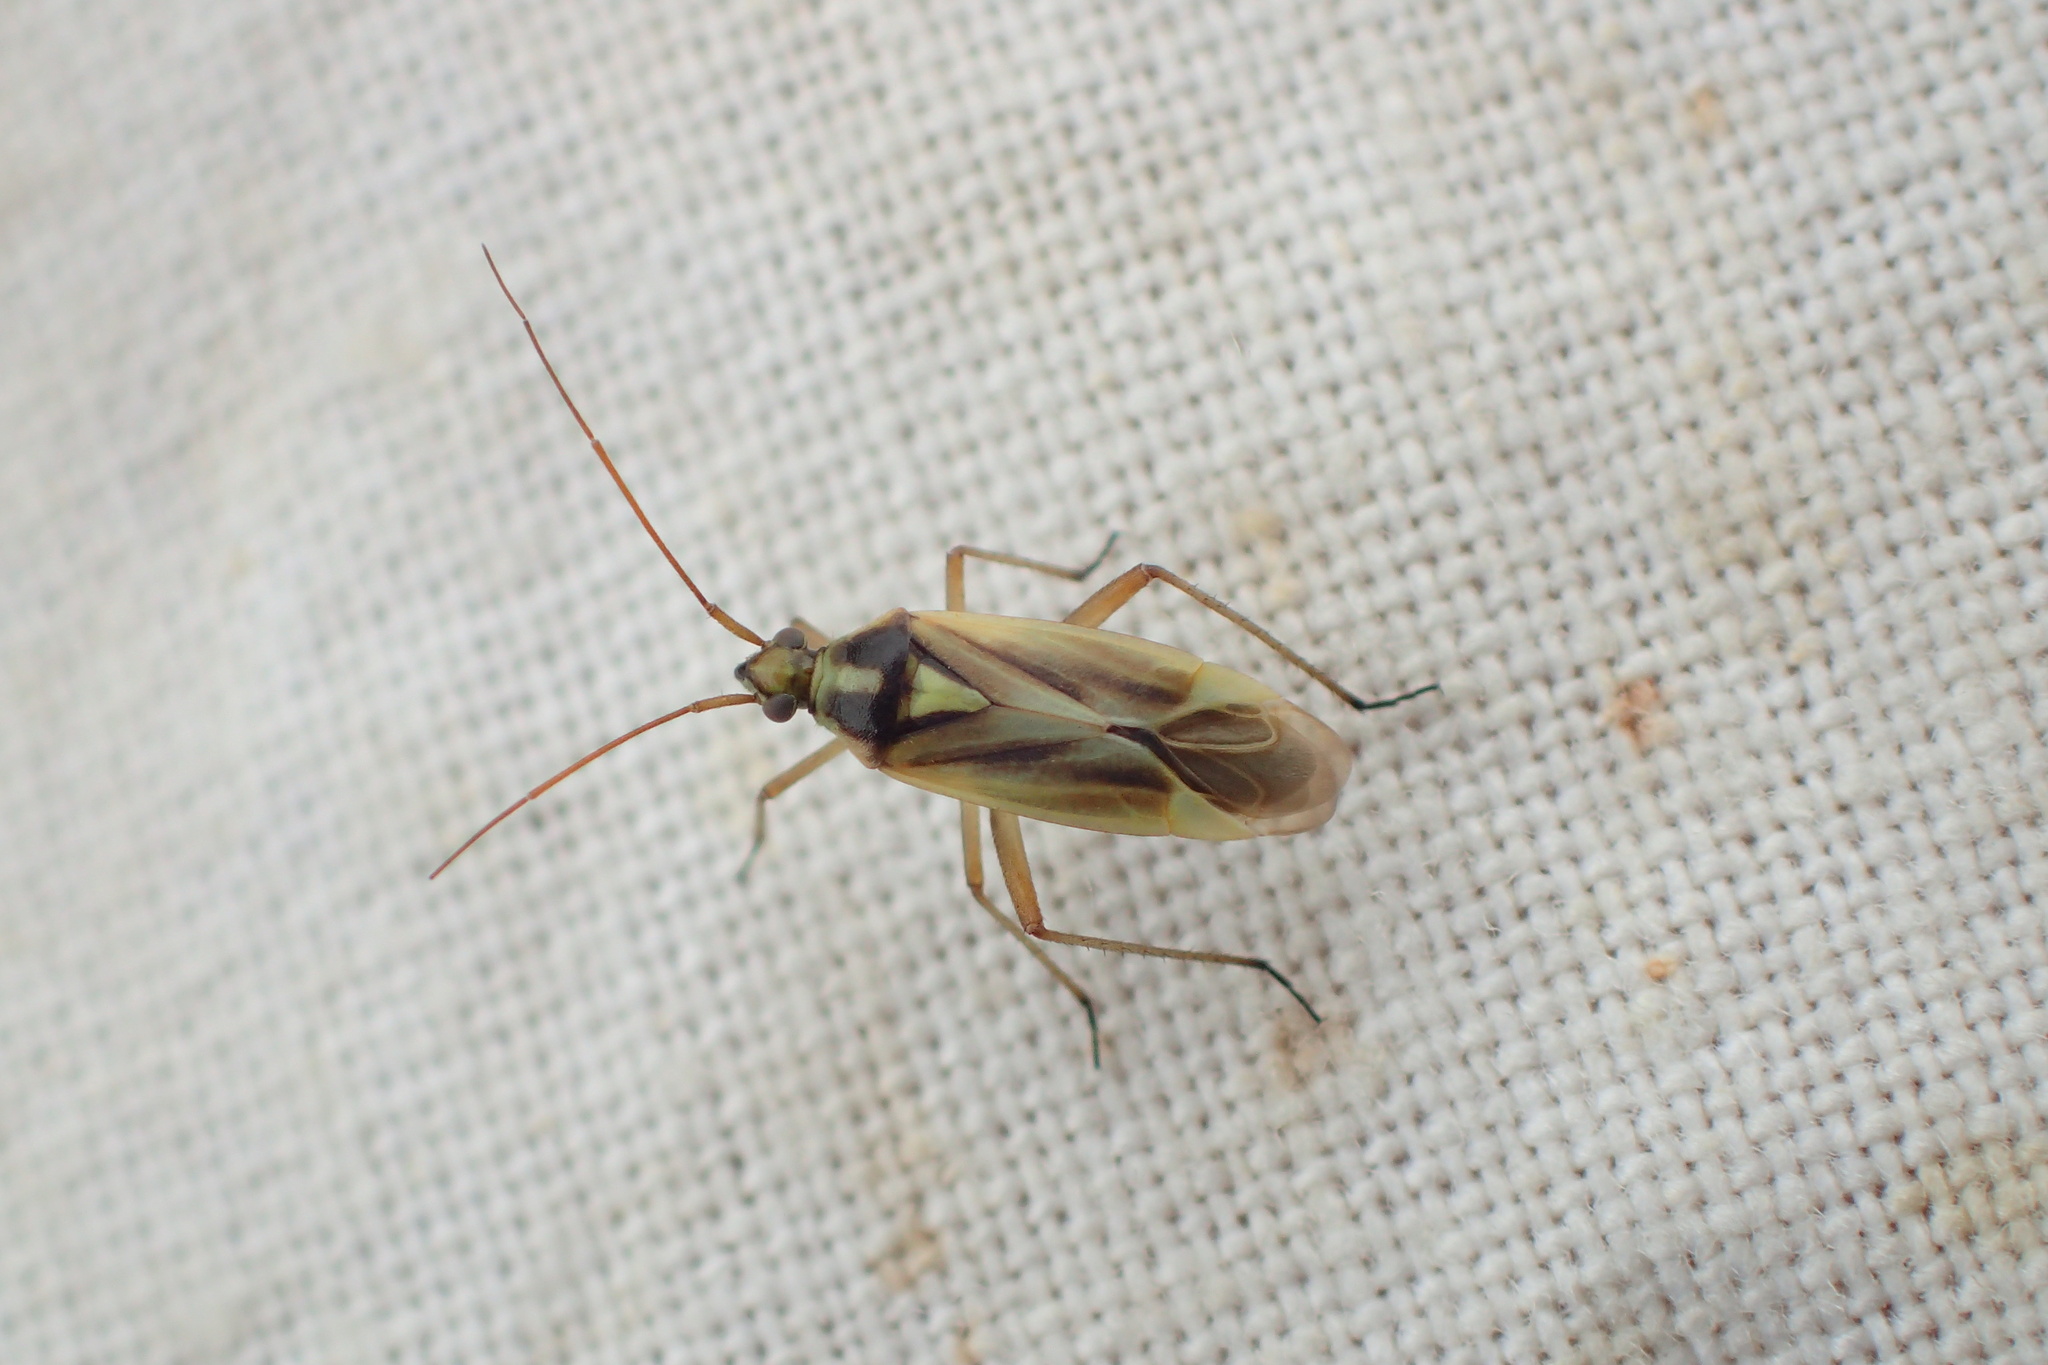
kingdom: Animalia
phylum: Arthropoda
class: Insecta
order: Hemiptera
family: Miridae
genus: Stenotus
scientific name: Stenotus binotatus
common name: Plant bug
